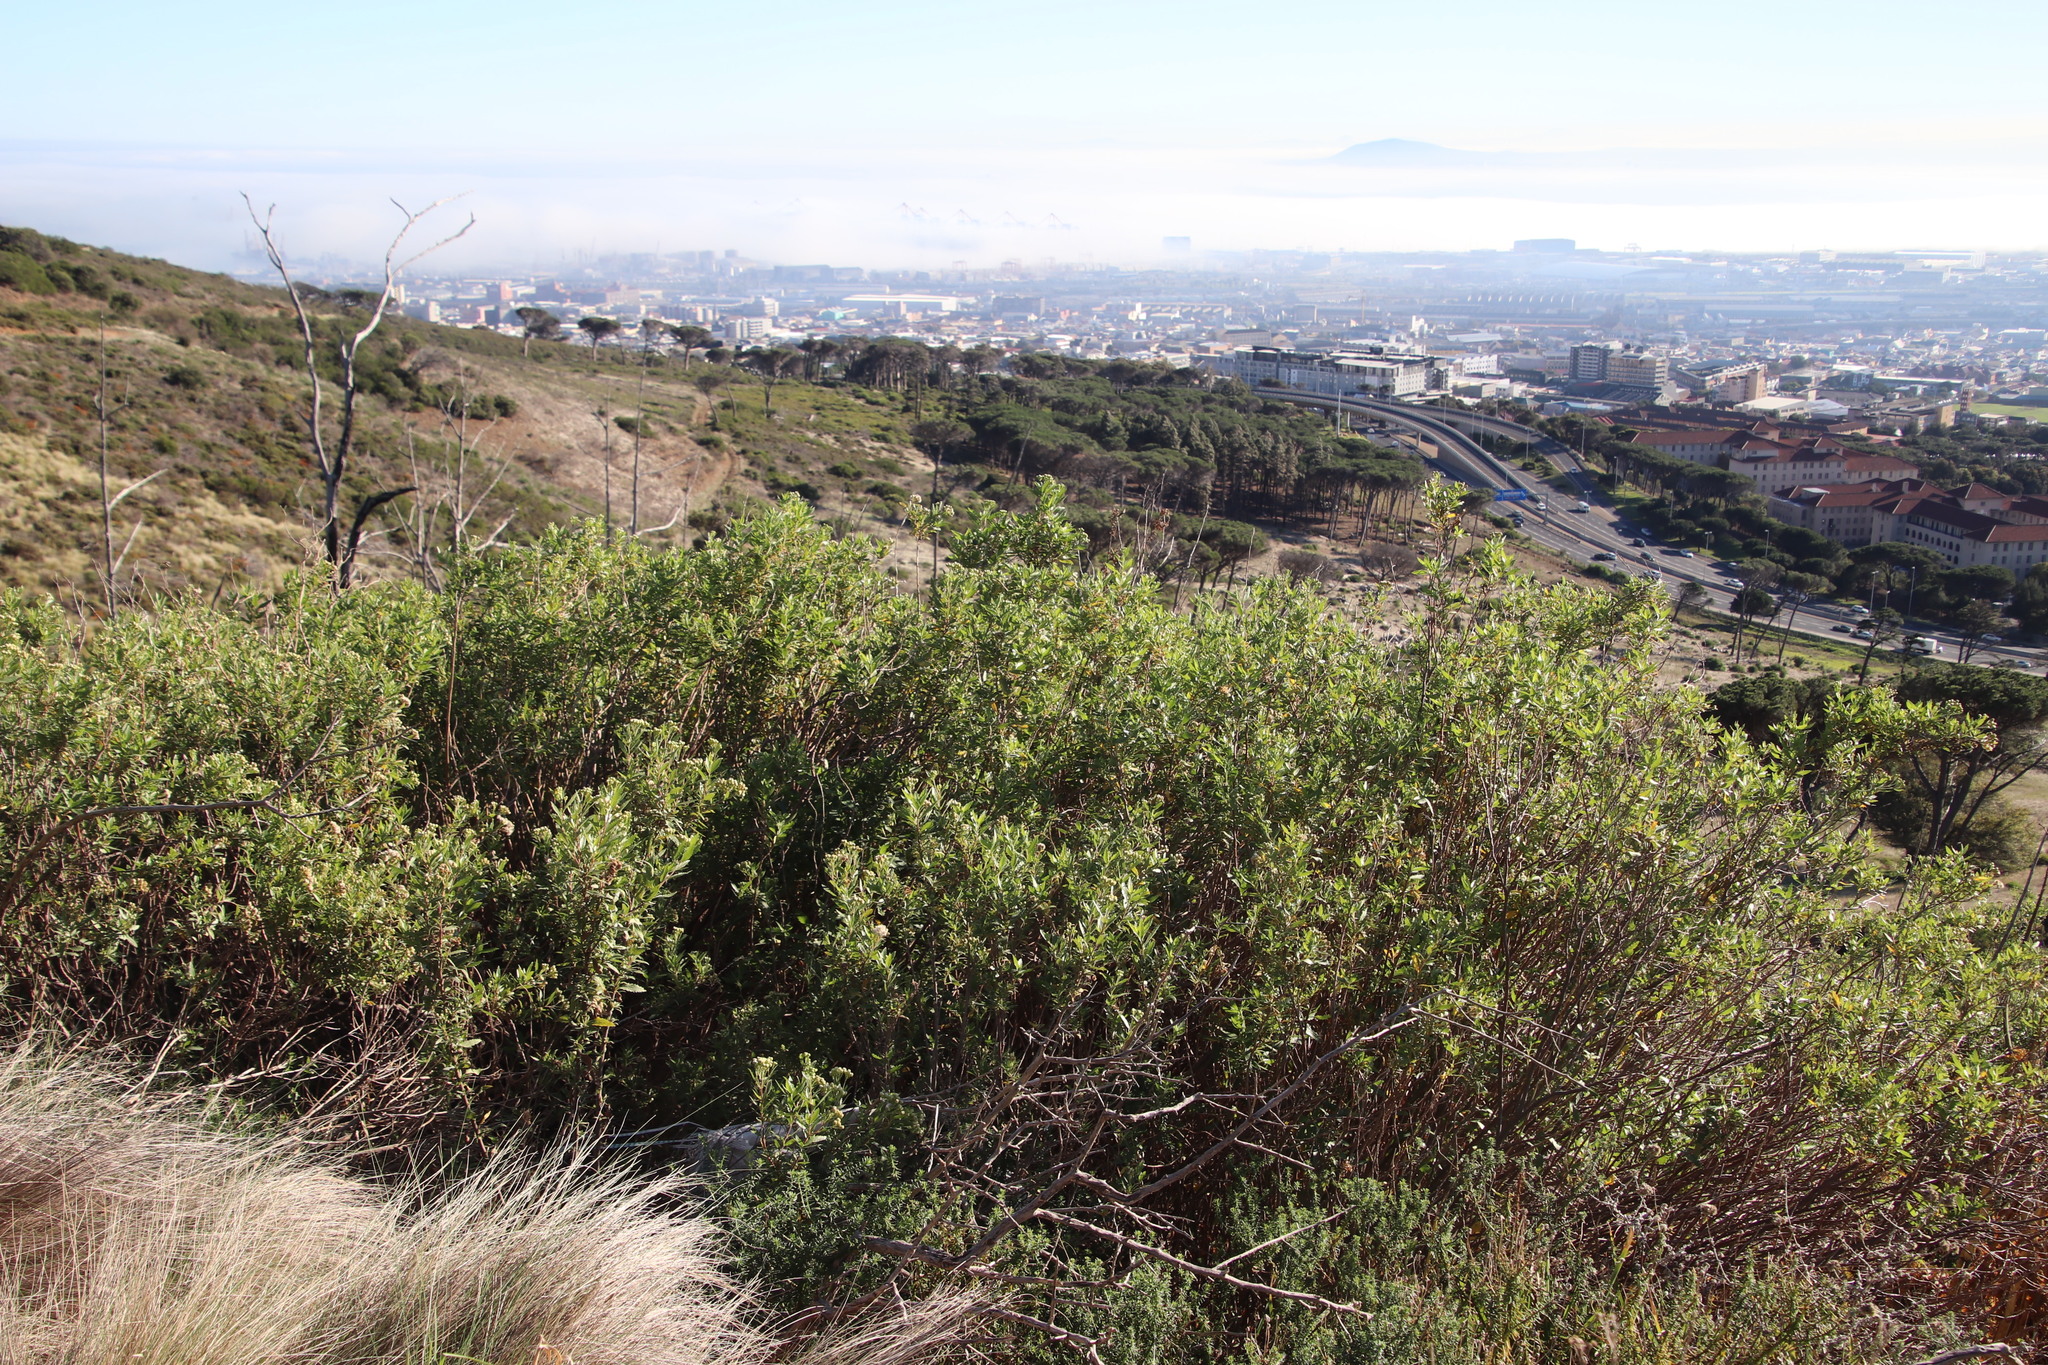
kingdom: Plantae
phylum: Tracheophyta
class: Magnoliopsida
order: Asterales
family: Asteraceae
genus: Nidorella
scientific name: Nidorella ivifolia
